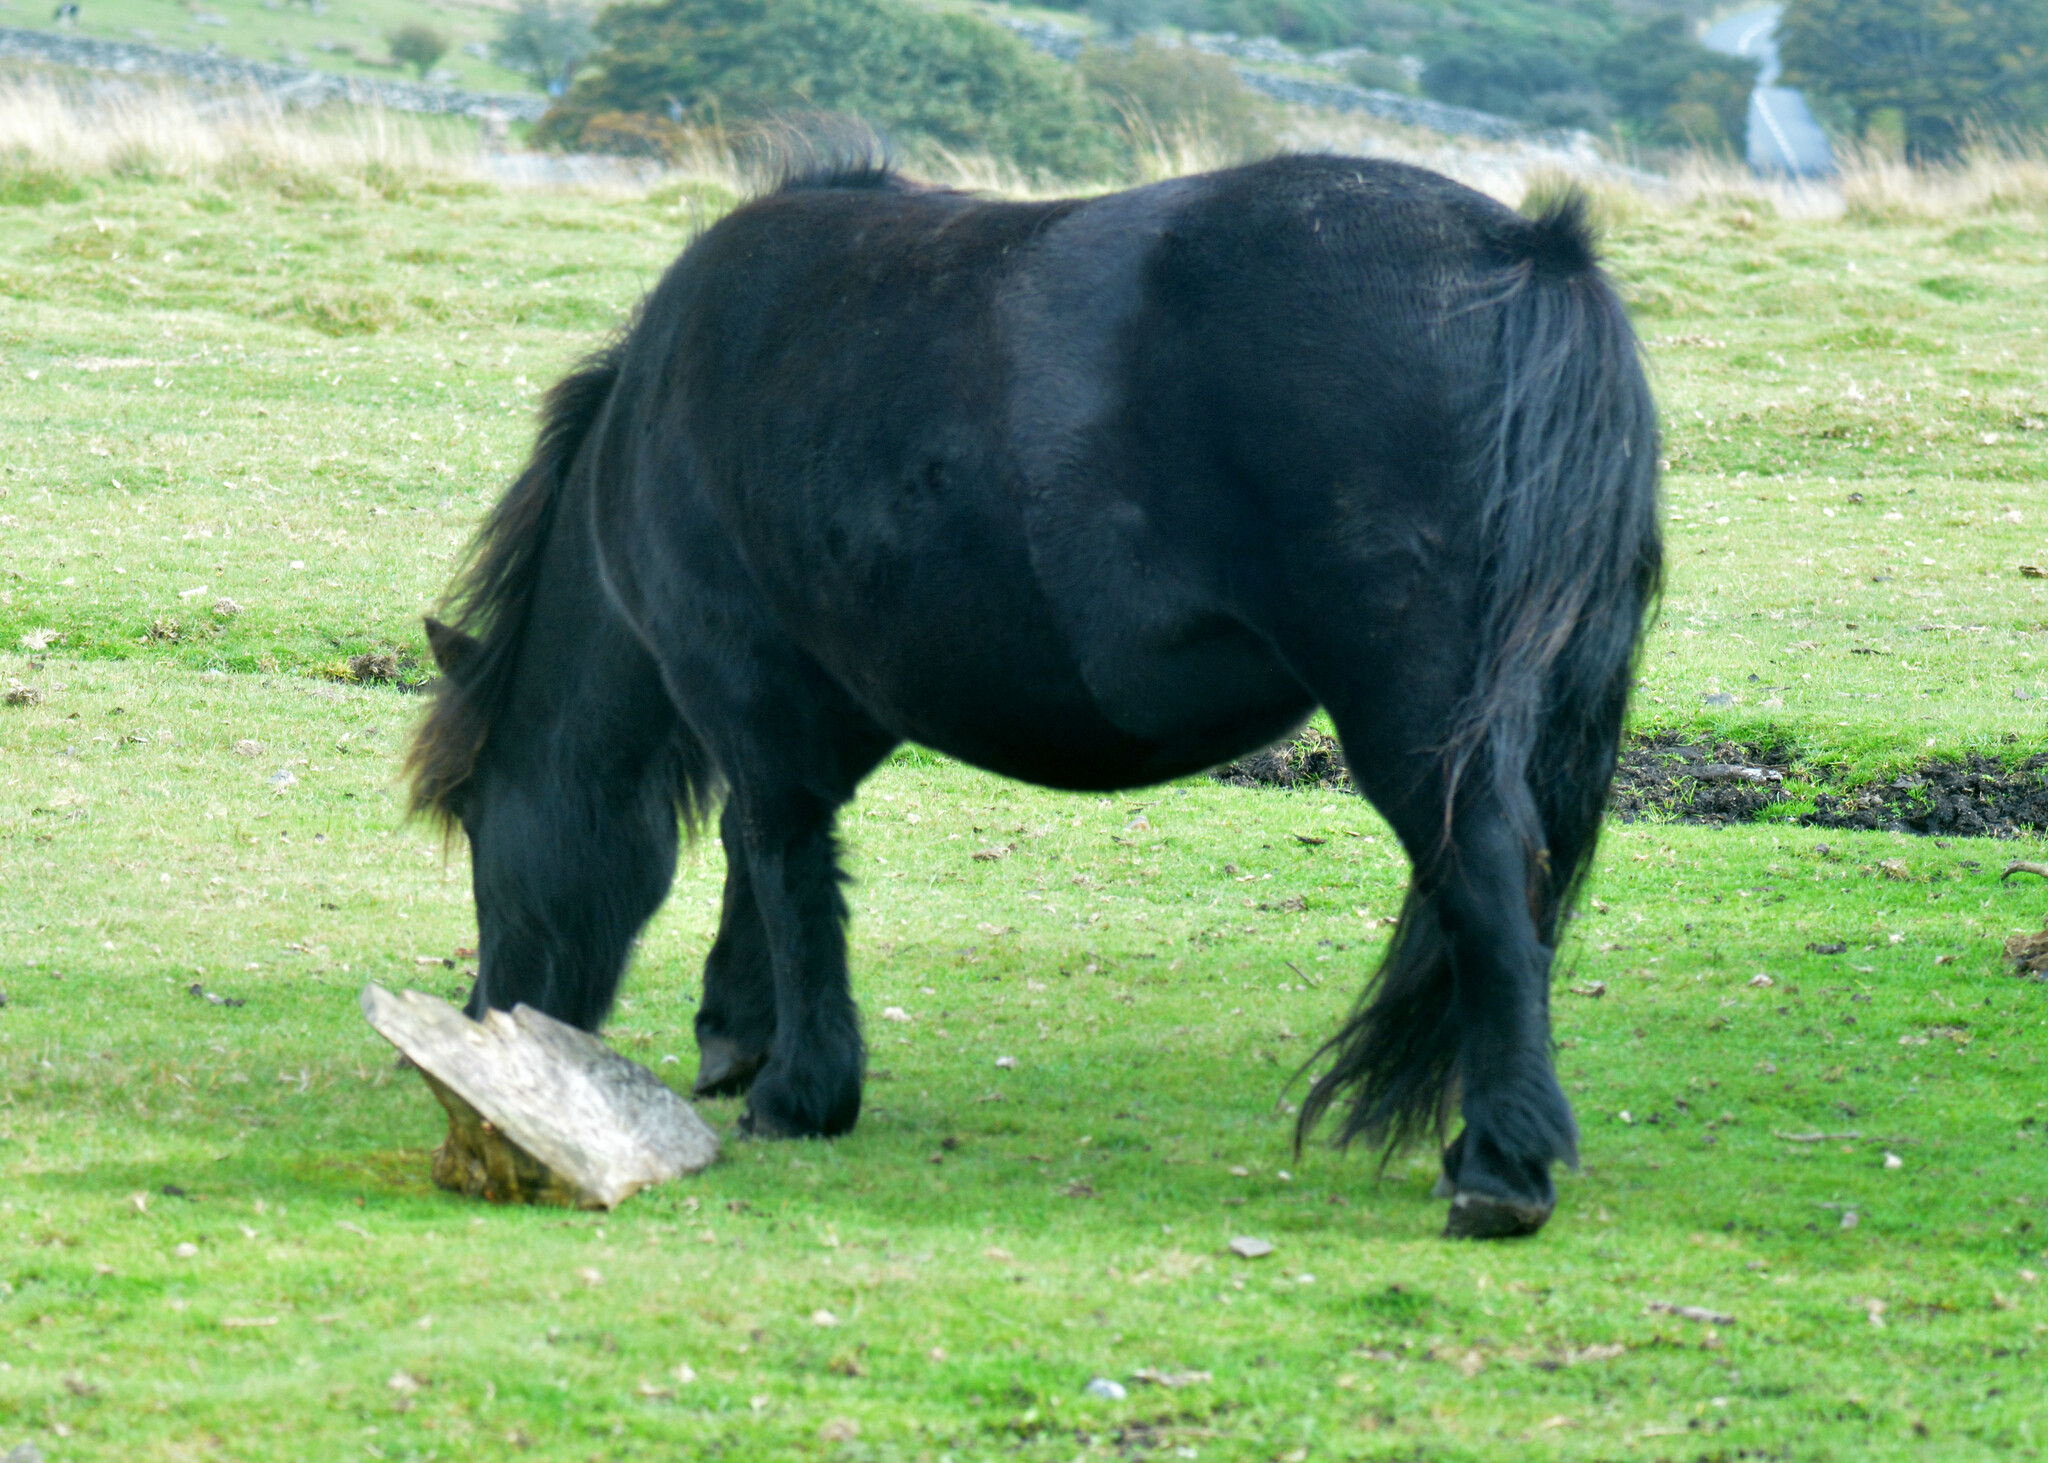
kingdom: Animalia
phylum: Chordata
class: Mammalia
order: Perissodactyla
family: Equidae
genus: Equus
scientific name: Equus caballus
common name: Horse
